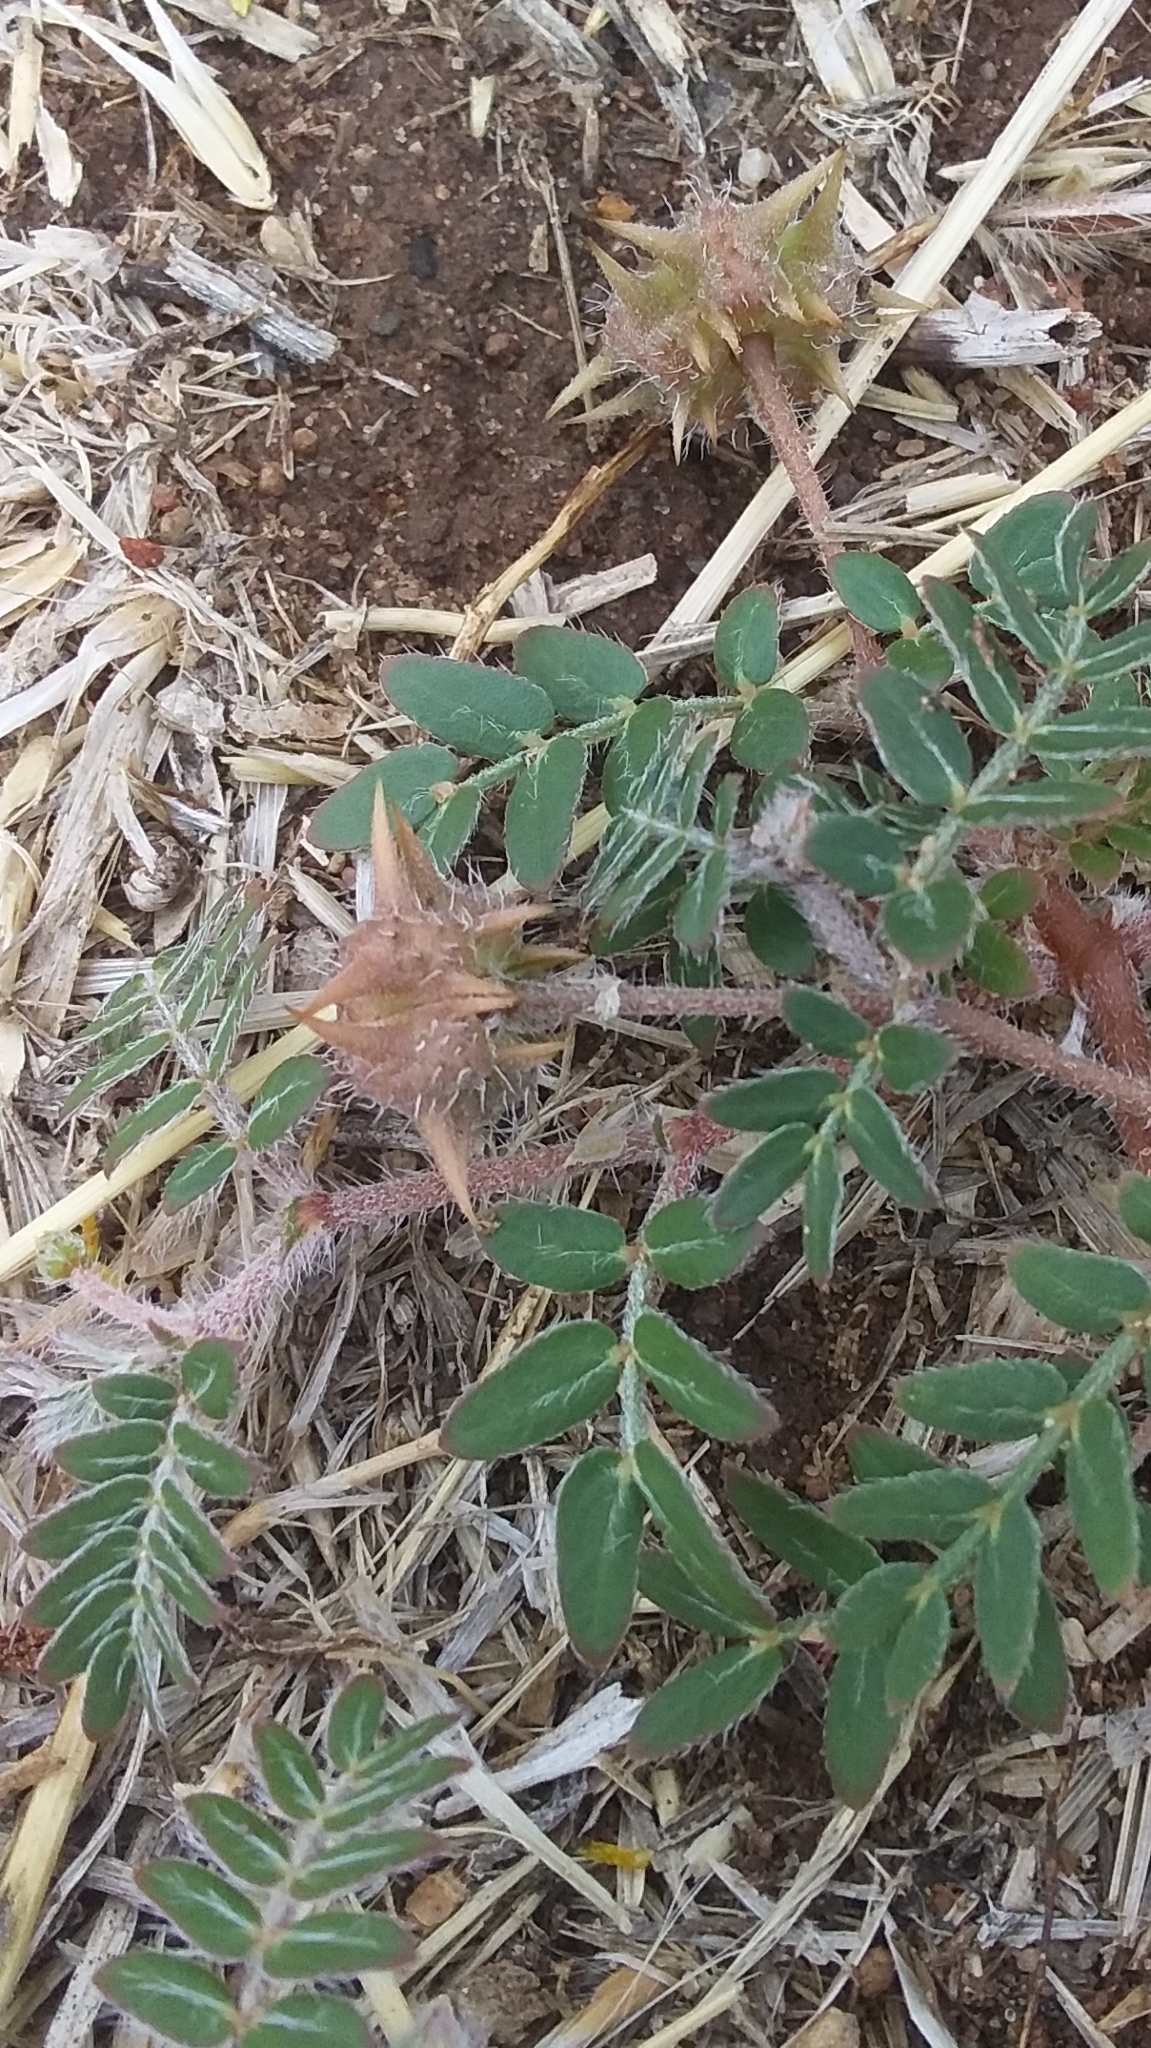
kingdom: Plantae
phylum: Tracheophyta
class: Magnoliopsida
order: Zygophyllales
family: Zygophyllaceae
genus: Tribulus
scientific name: Tribulus terrestris
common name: Puncturevine
